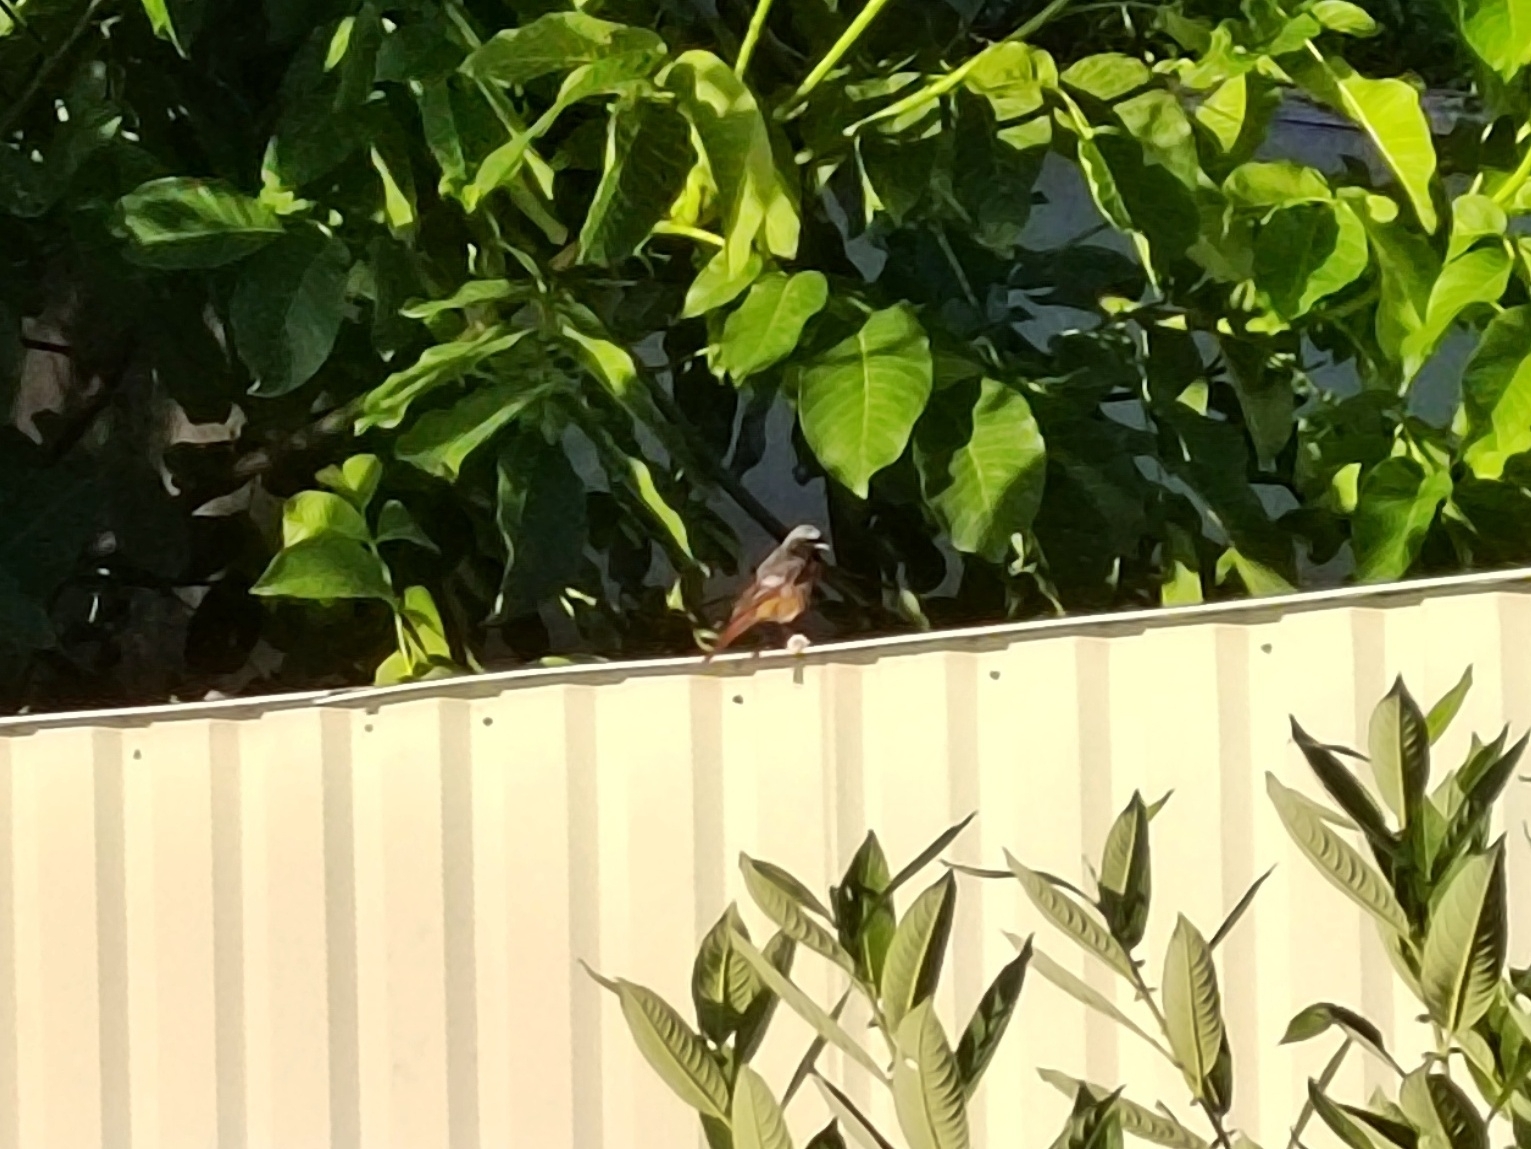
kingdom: Animalia
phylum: Chordata
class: Aves
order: Passeriformes
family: Muscicapidae
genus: Phoenicurus
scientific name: Phoenicurus ochruros
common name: Black redstart
